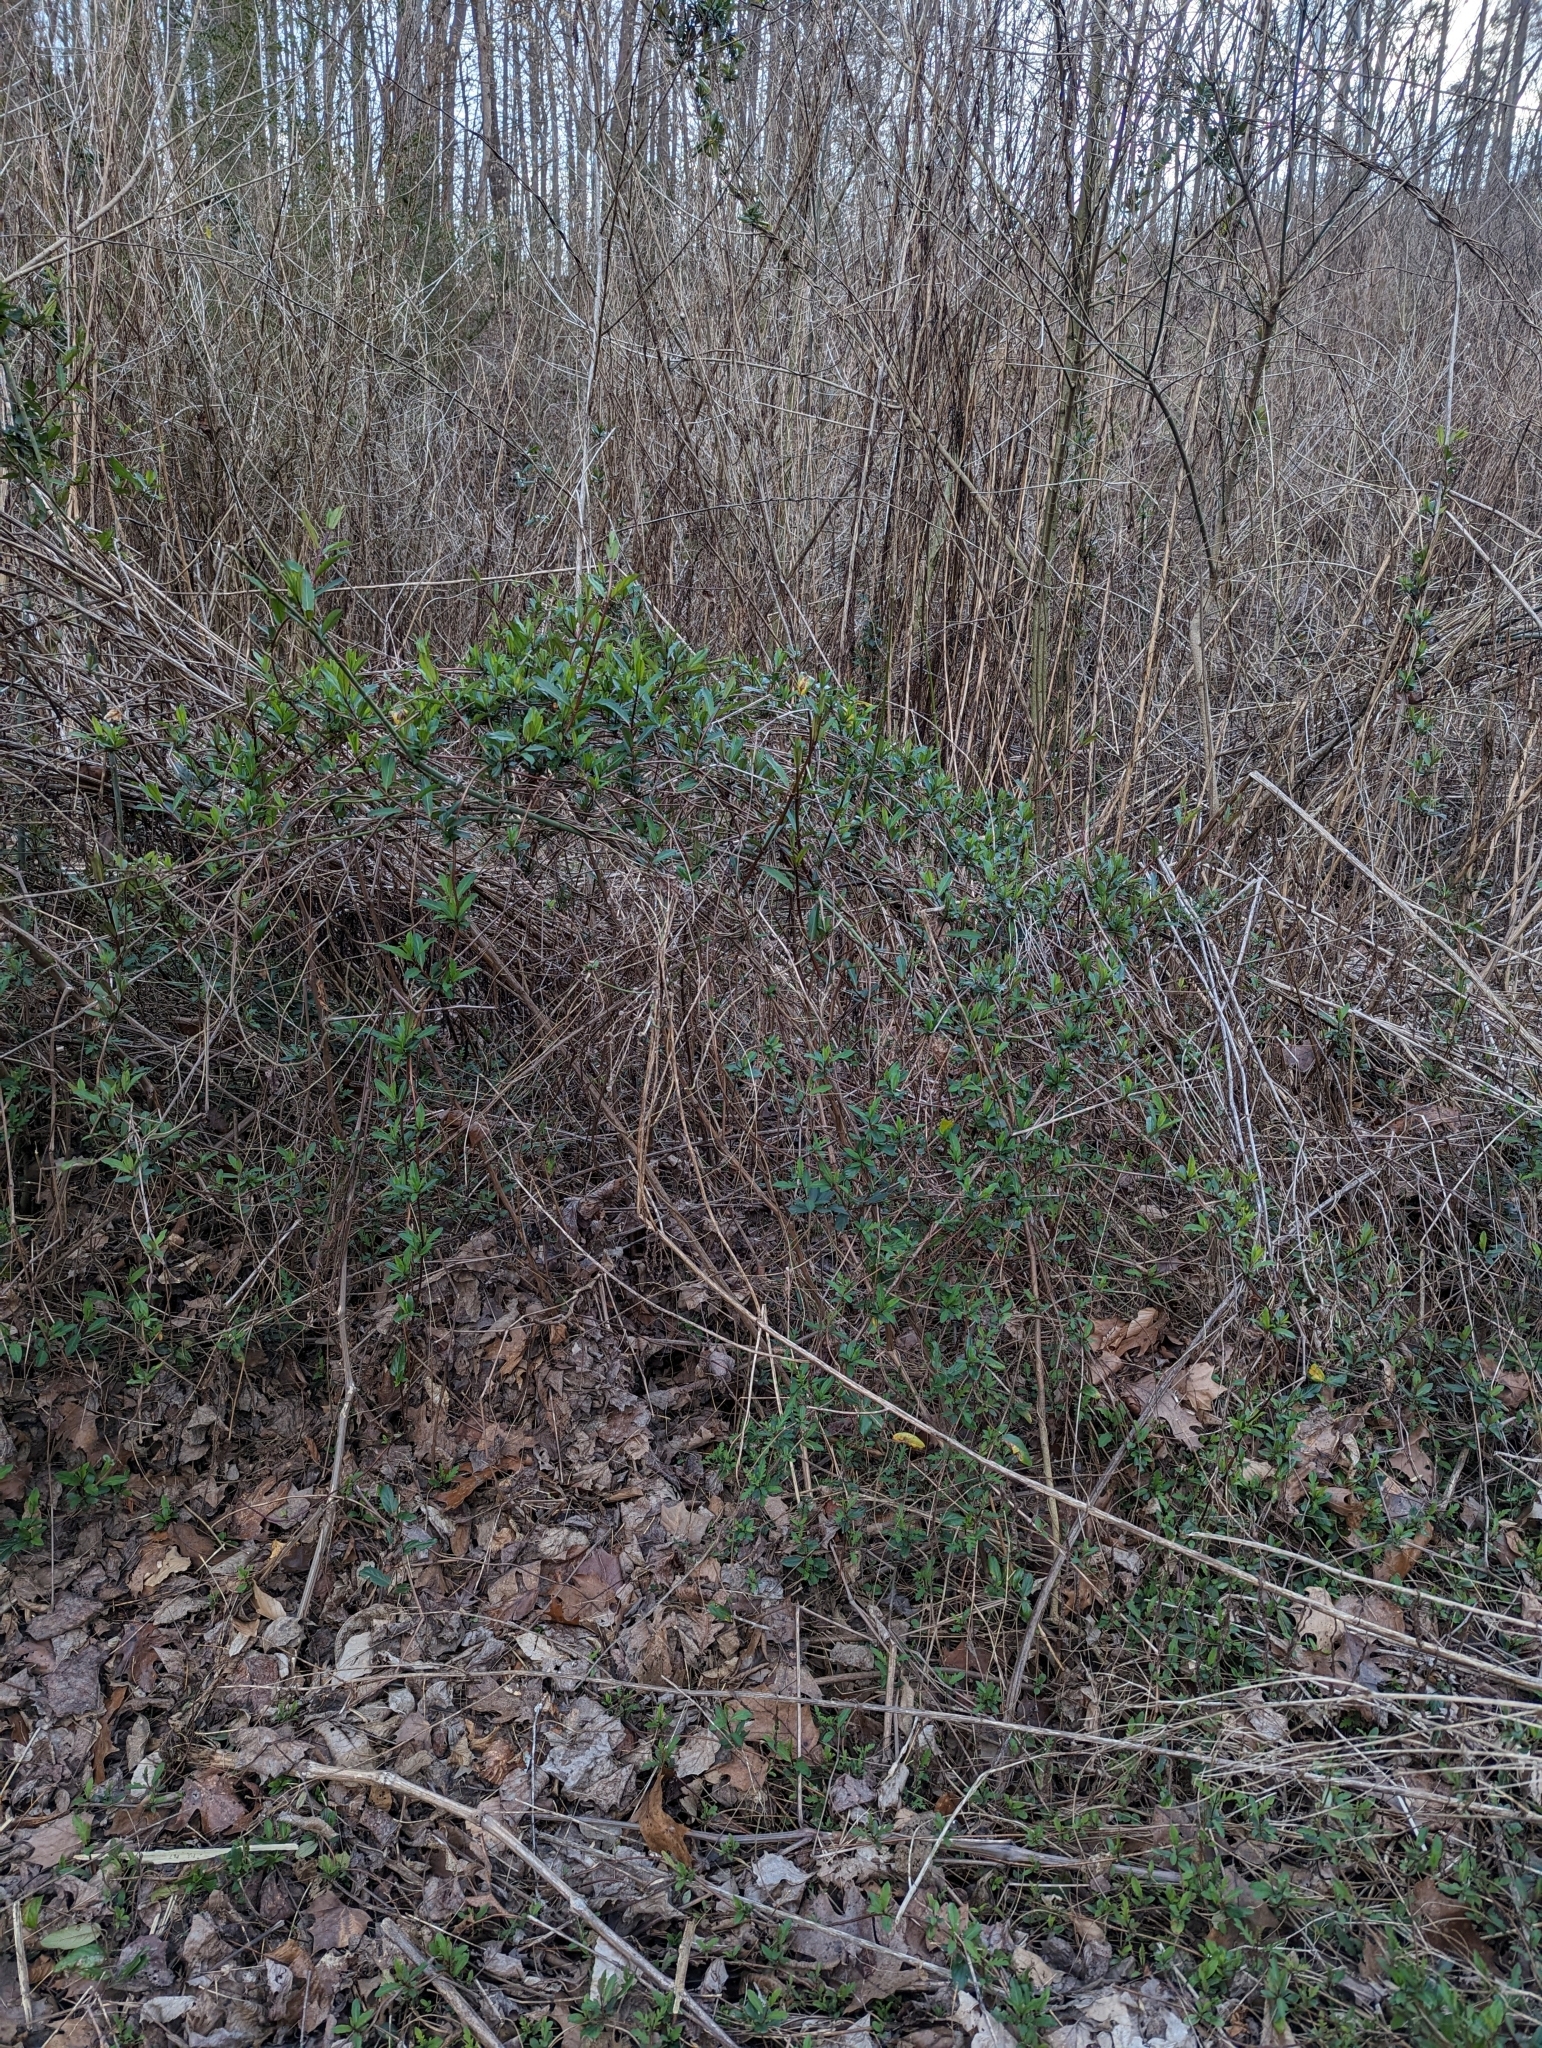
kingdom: Plantae
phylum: Tracheophyta
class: Magnoliopsida
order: Dipsacales
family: Caprifoliaceae
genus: Lonicera
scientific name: Lonicera japonica
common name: Japanese honeysuckle
